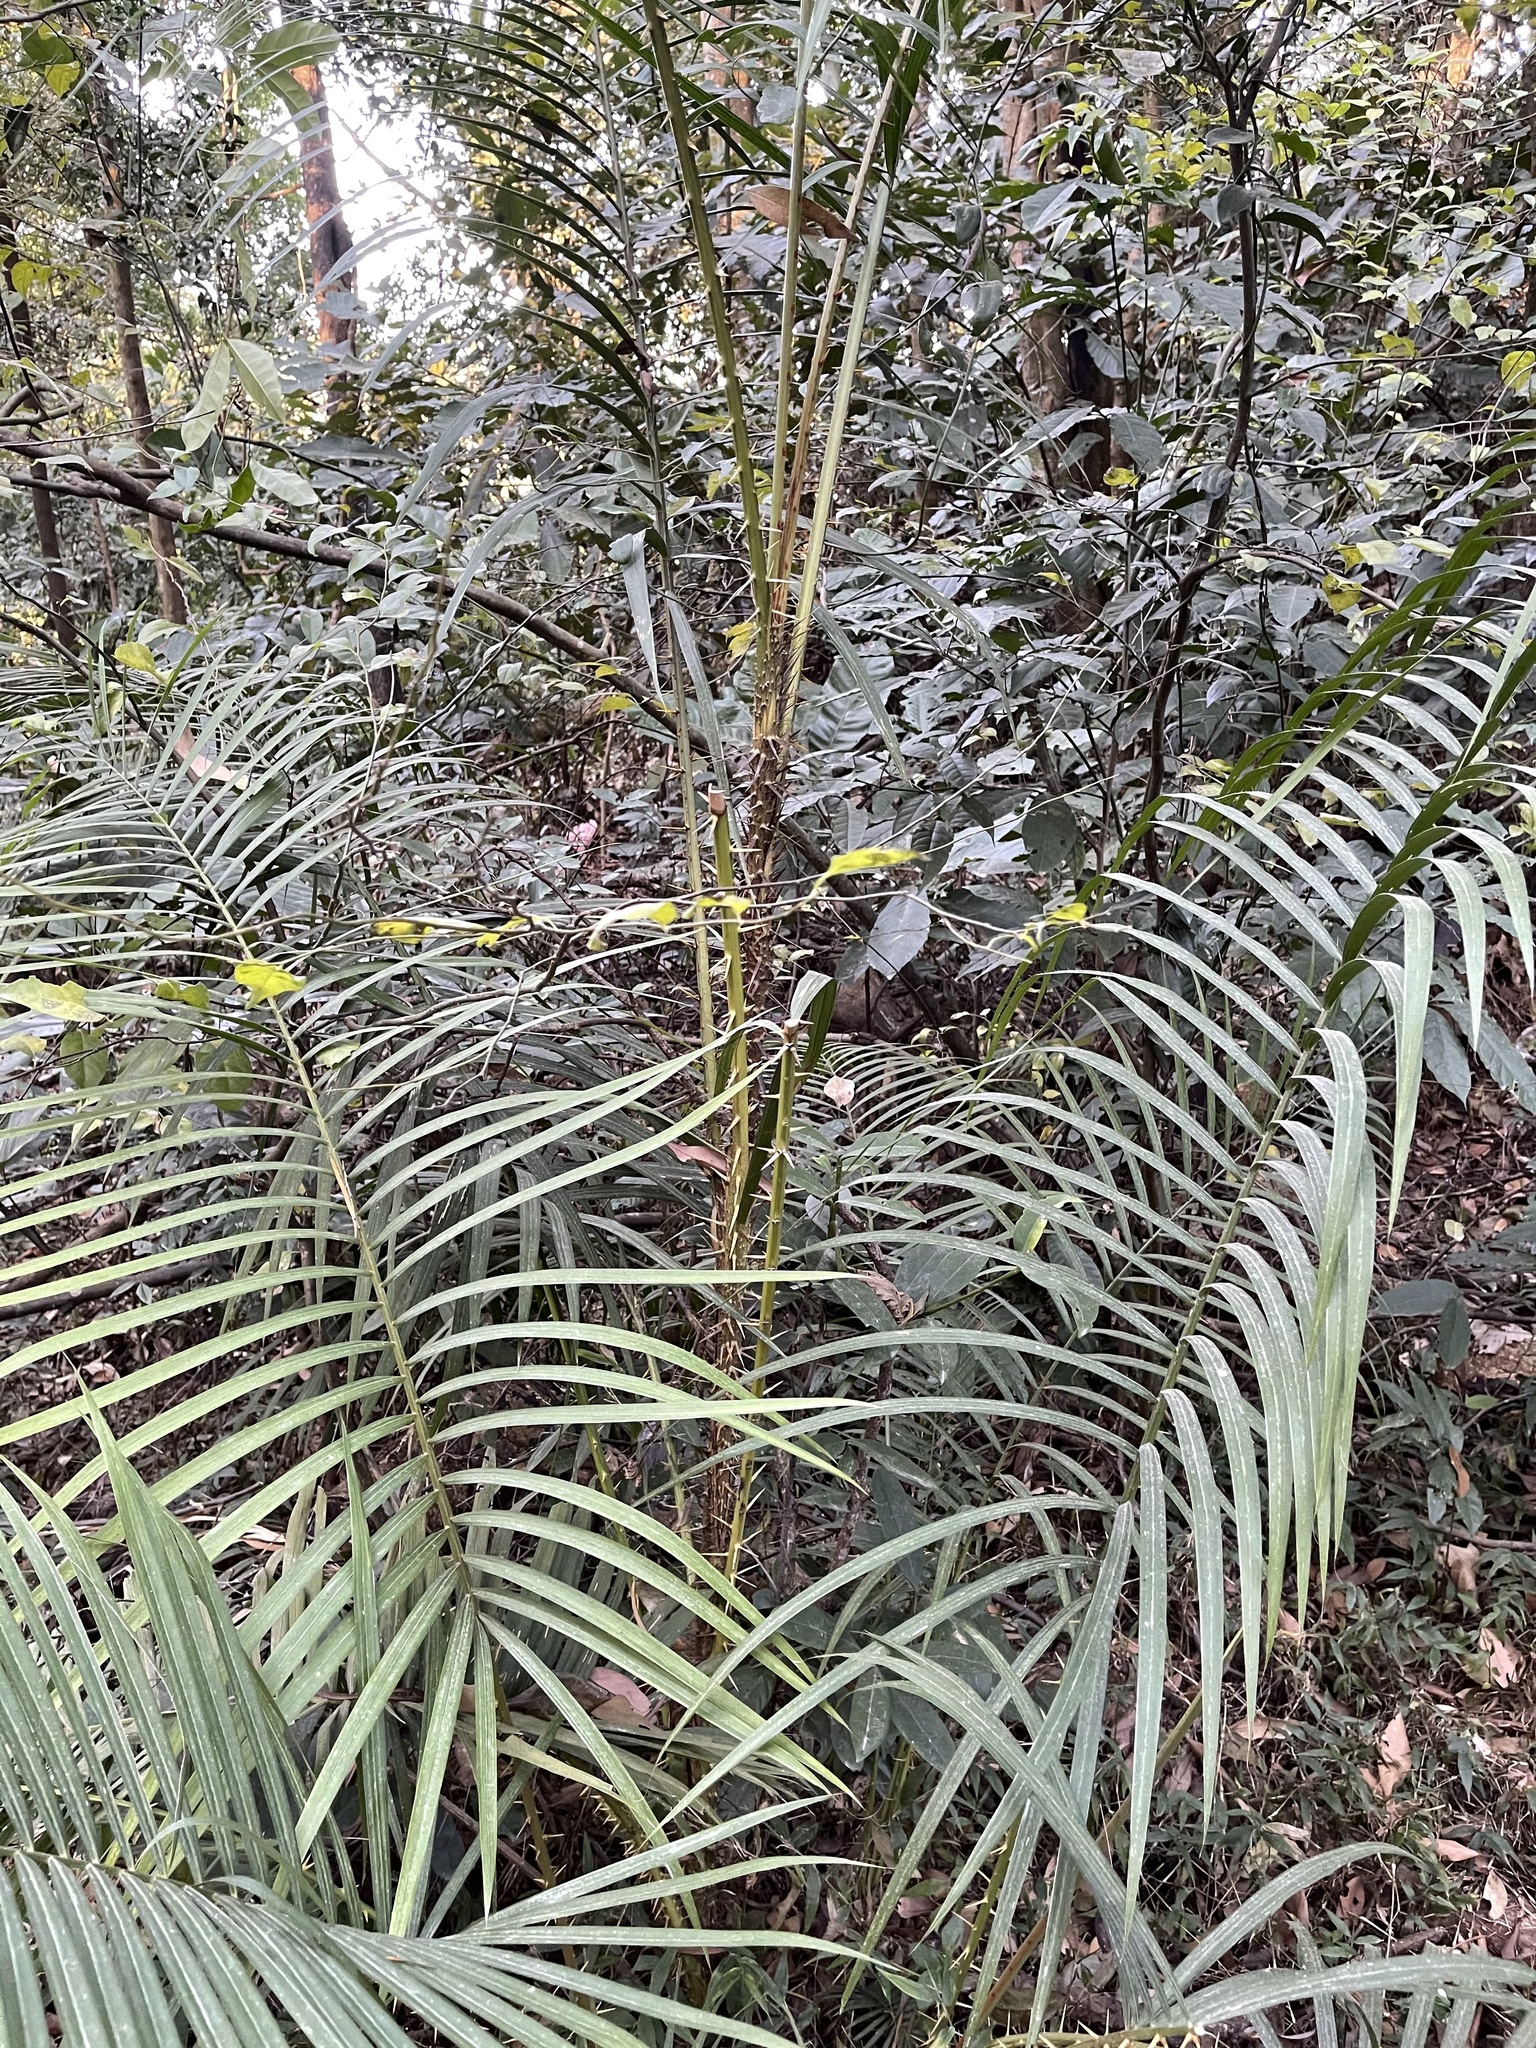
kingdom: Plantae
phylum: Tracheophyta
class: Liliopsida
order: Arecales
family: Arecaceae
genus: Calamus
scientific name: Calamus walkeri
